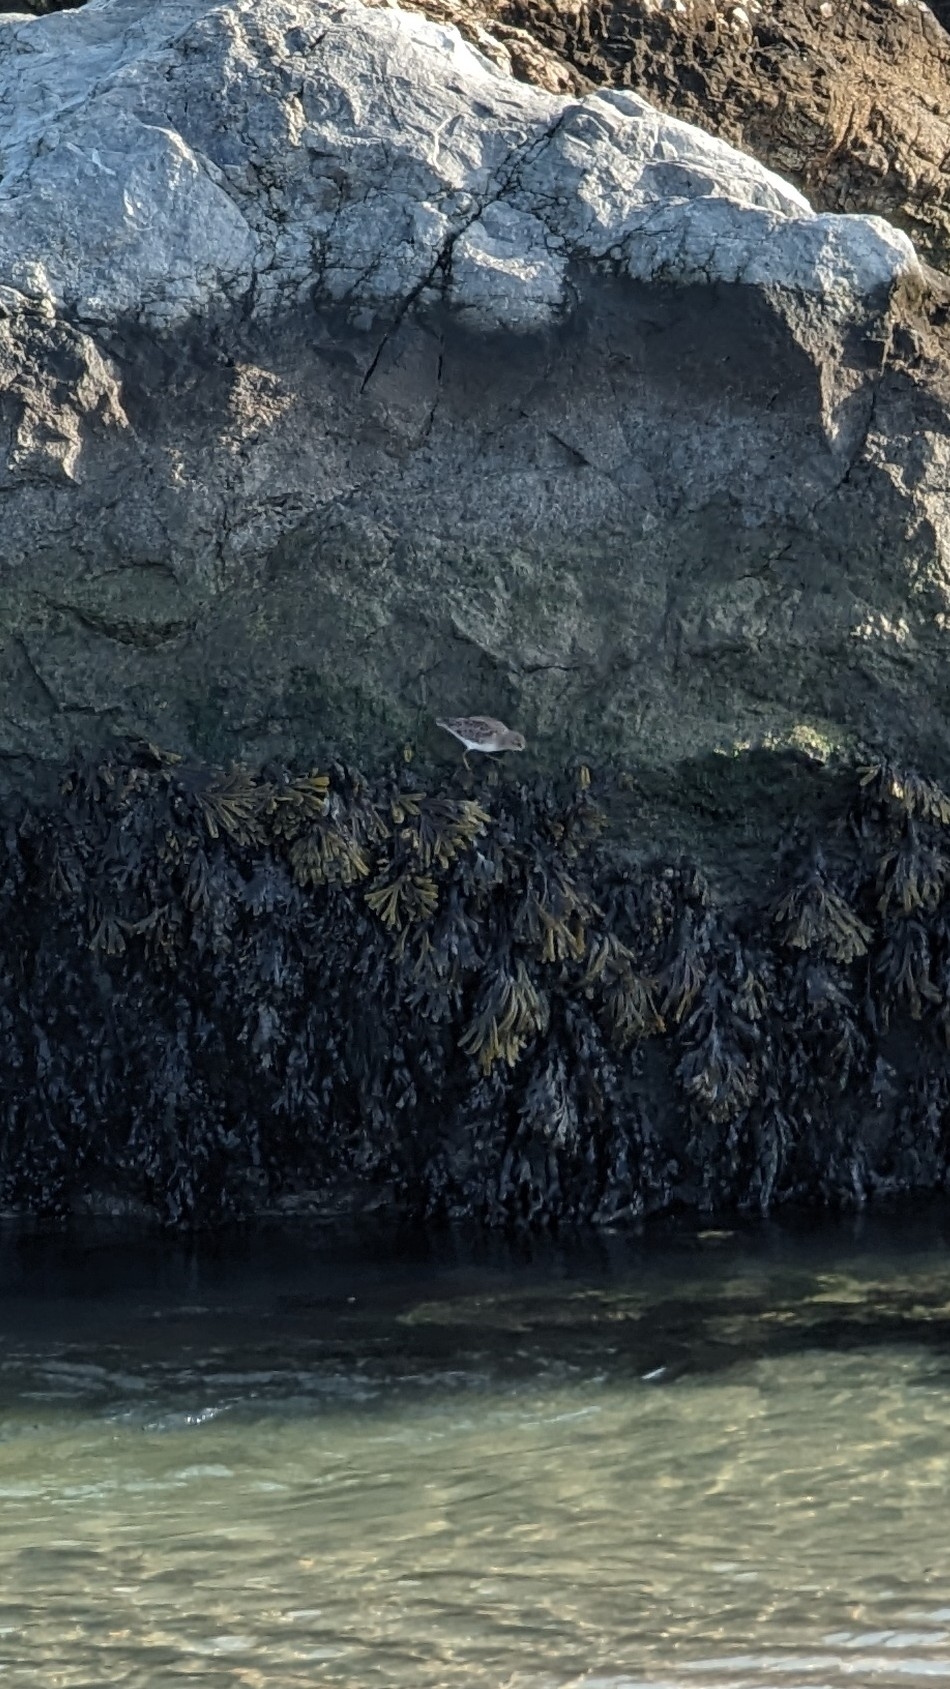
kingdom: Animalia
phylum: Chordata
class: Aves
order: Charadriiformes
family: Scolopacidae
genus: Calidris
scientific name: Calidris minutilla
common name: Least sandpiper
